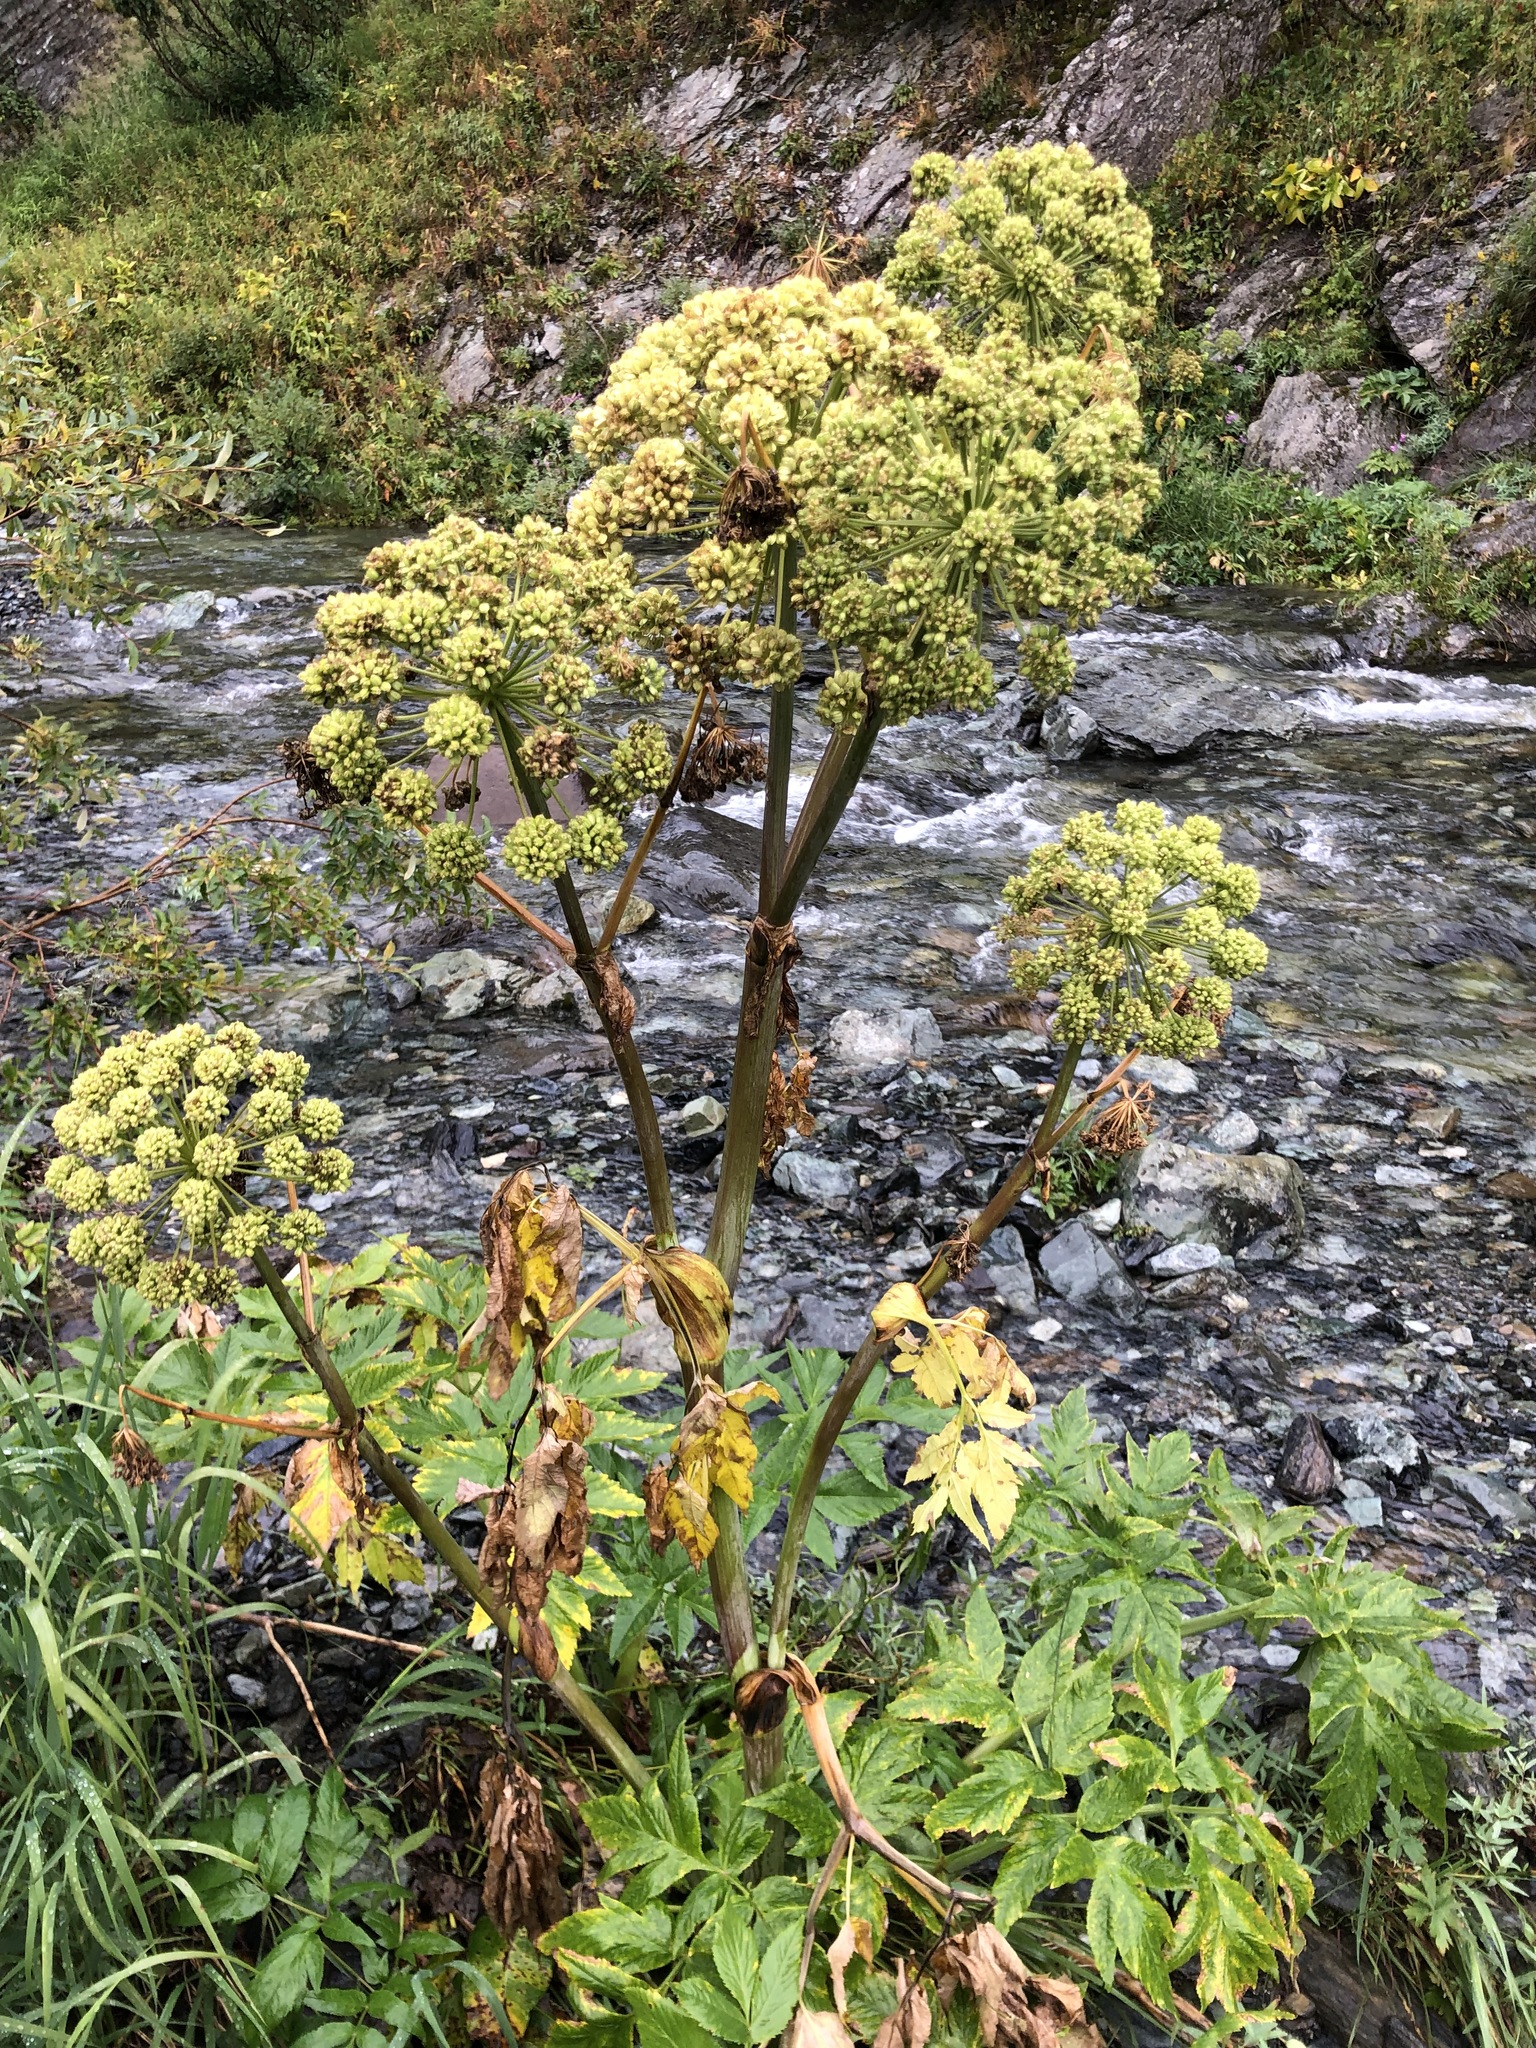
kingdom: Plantae
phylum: Tracheophyta
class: Magnoliopsida
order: Apiales
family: Apiaceae
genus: Angelica
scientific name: Angelica decurrens
